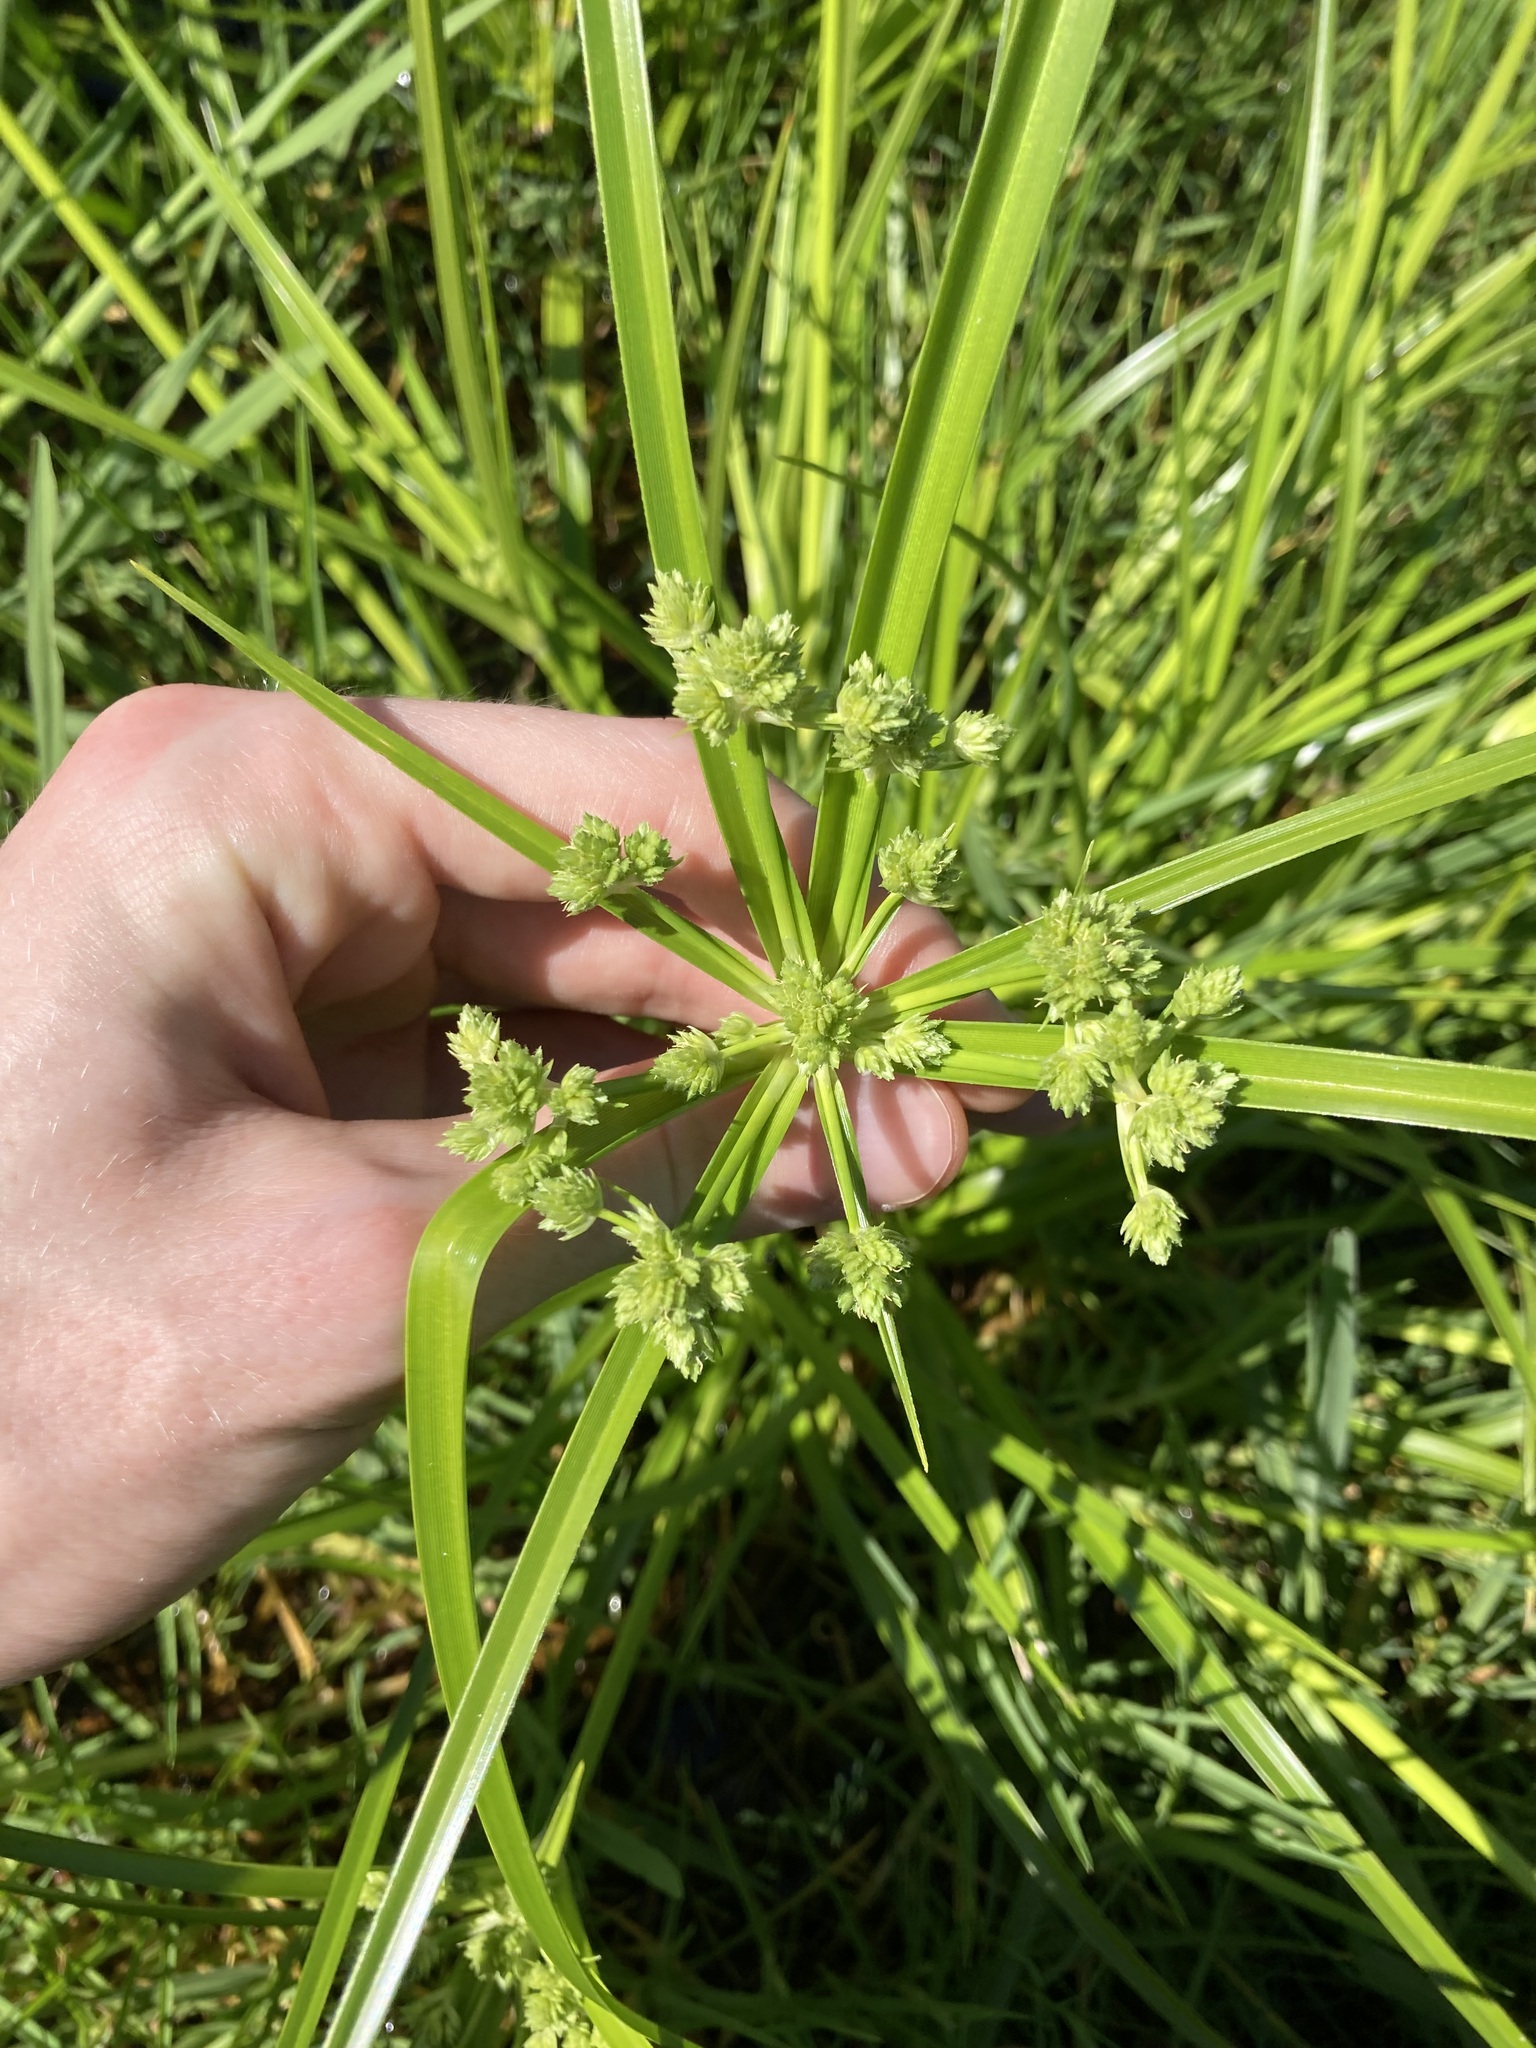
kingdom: Plantae
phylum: Tracheophyta
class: Liliopsida
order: Poales
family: Cyperaceae
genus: Cyperus
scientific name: Cyperus eragrostis
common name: Tall flatsedge
